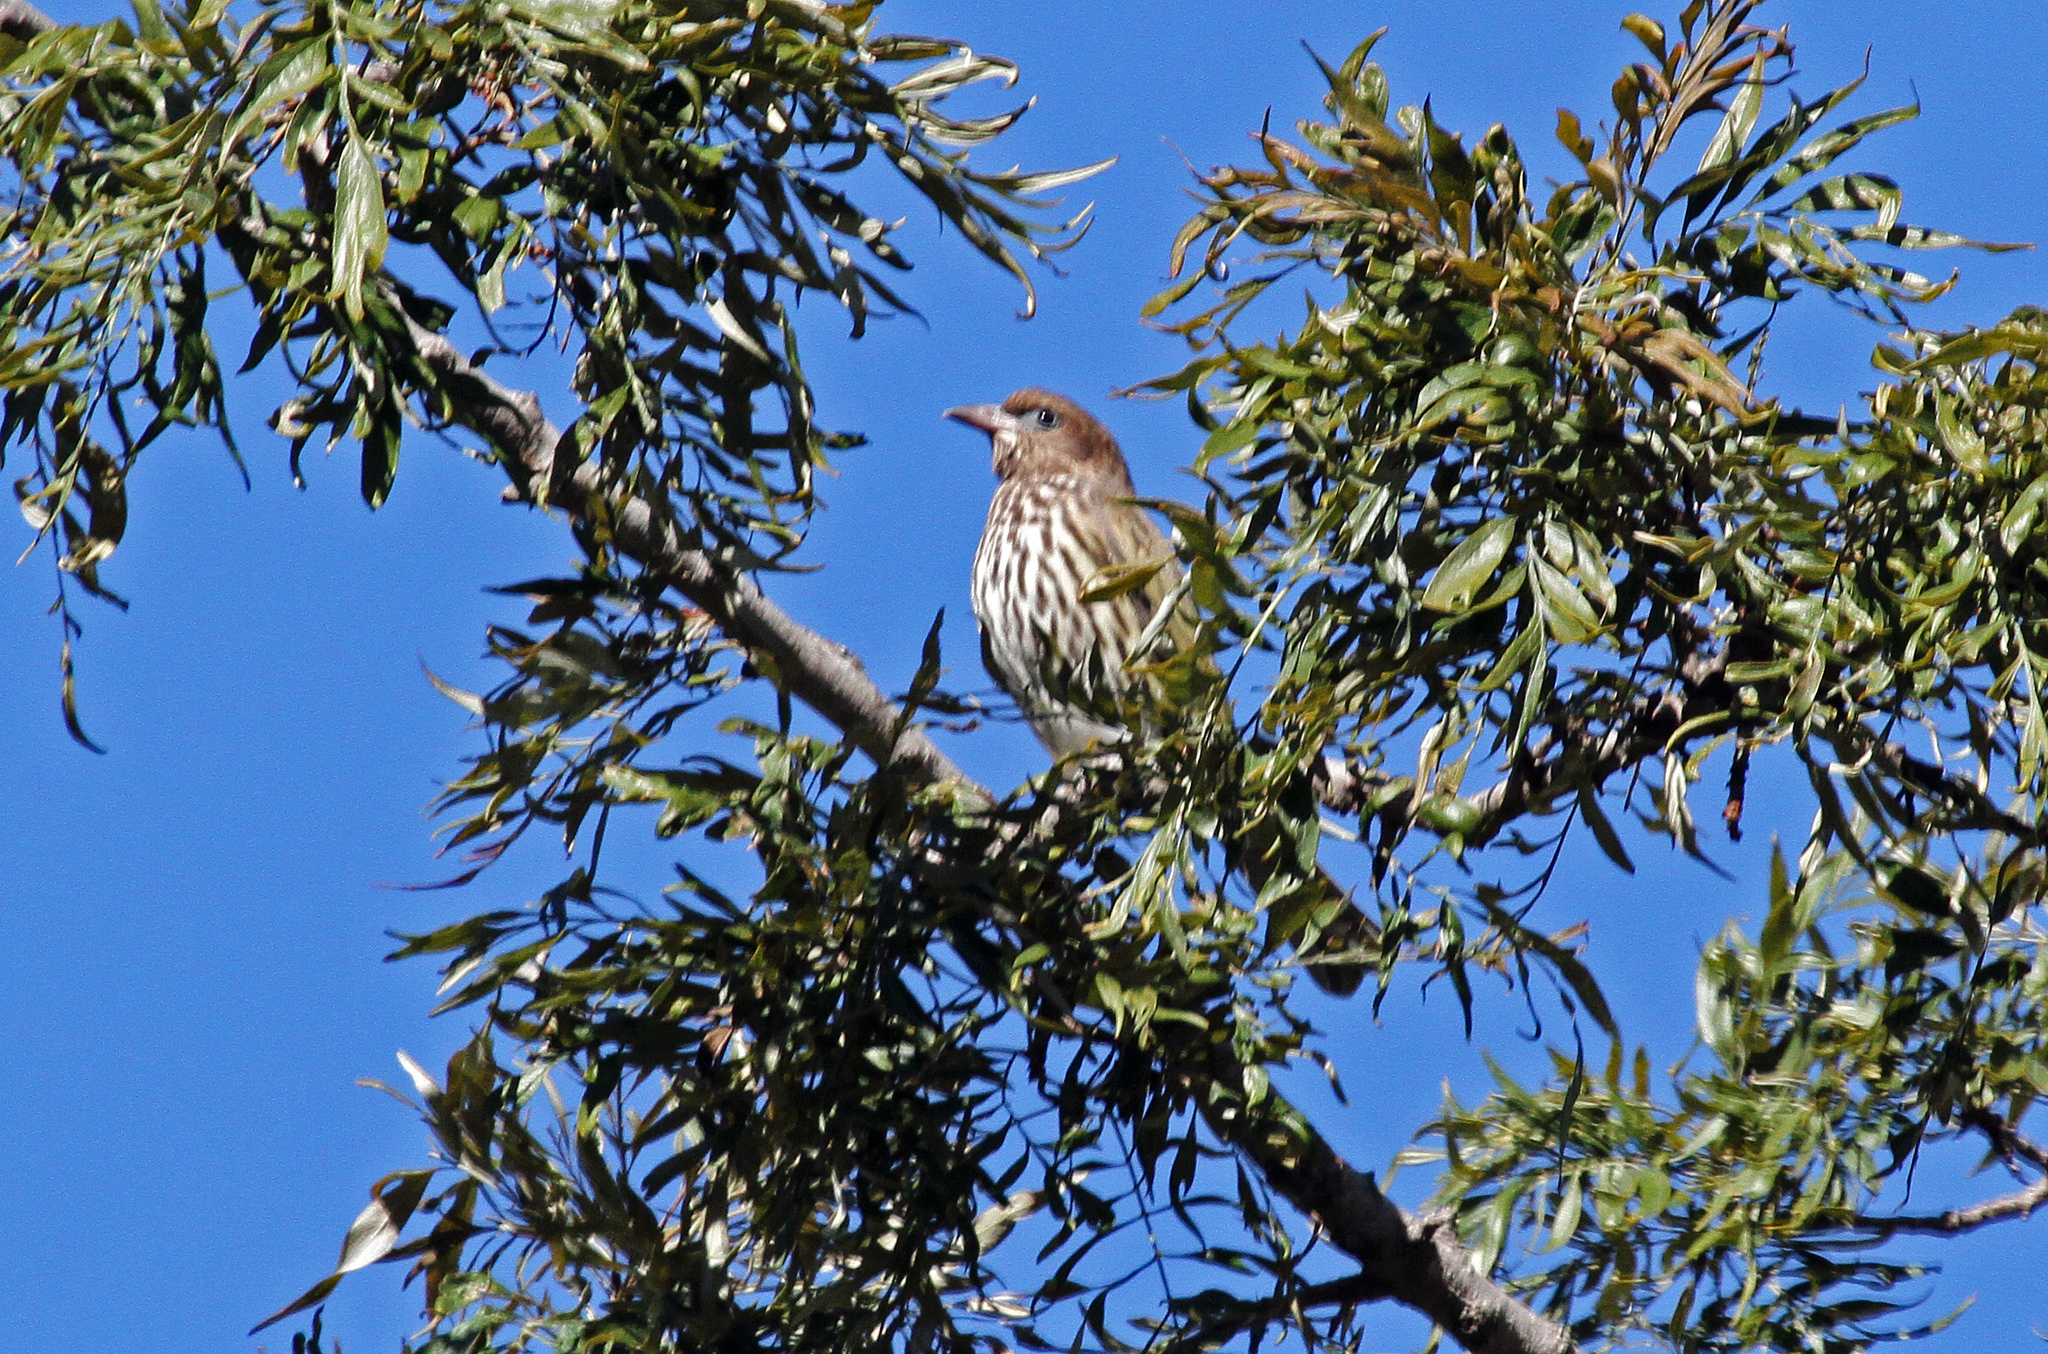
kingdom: Animalia
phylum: Chordata
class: Aves
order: Passeriformes
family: Oriolidae
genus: Sphecotheres
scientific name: Sphecotheres vieilloti
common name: Australasian figbird
